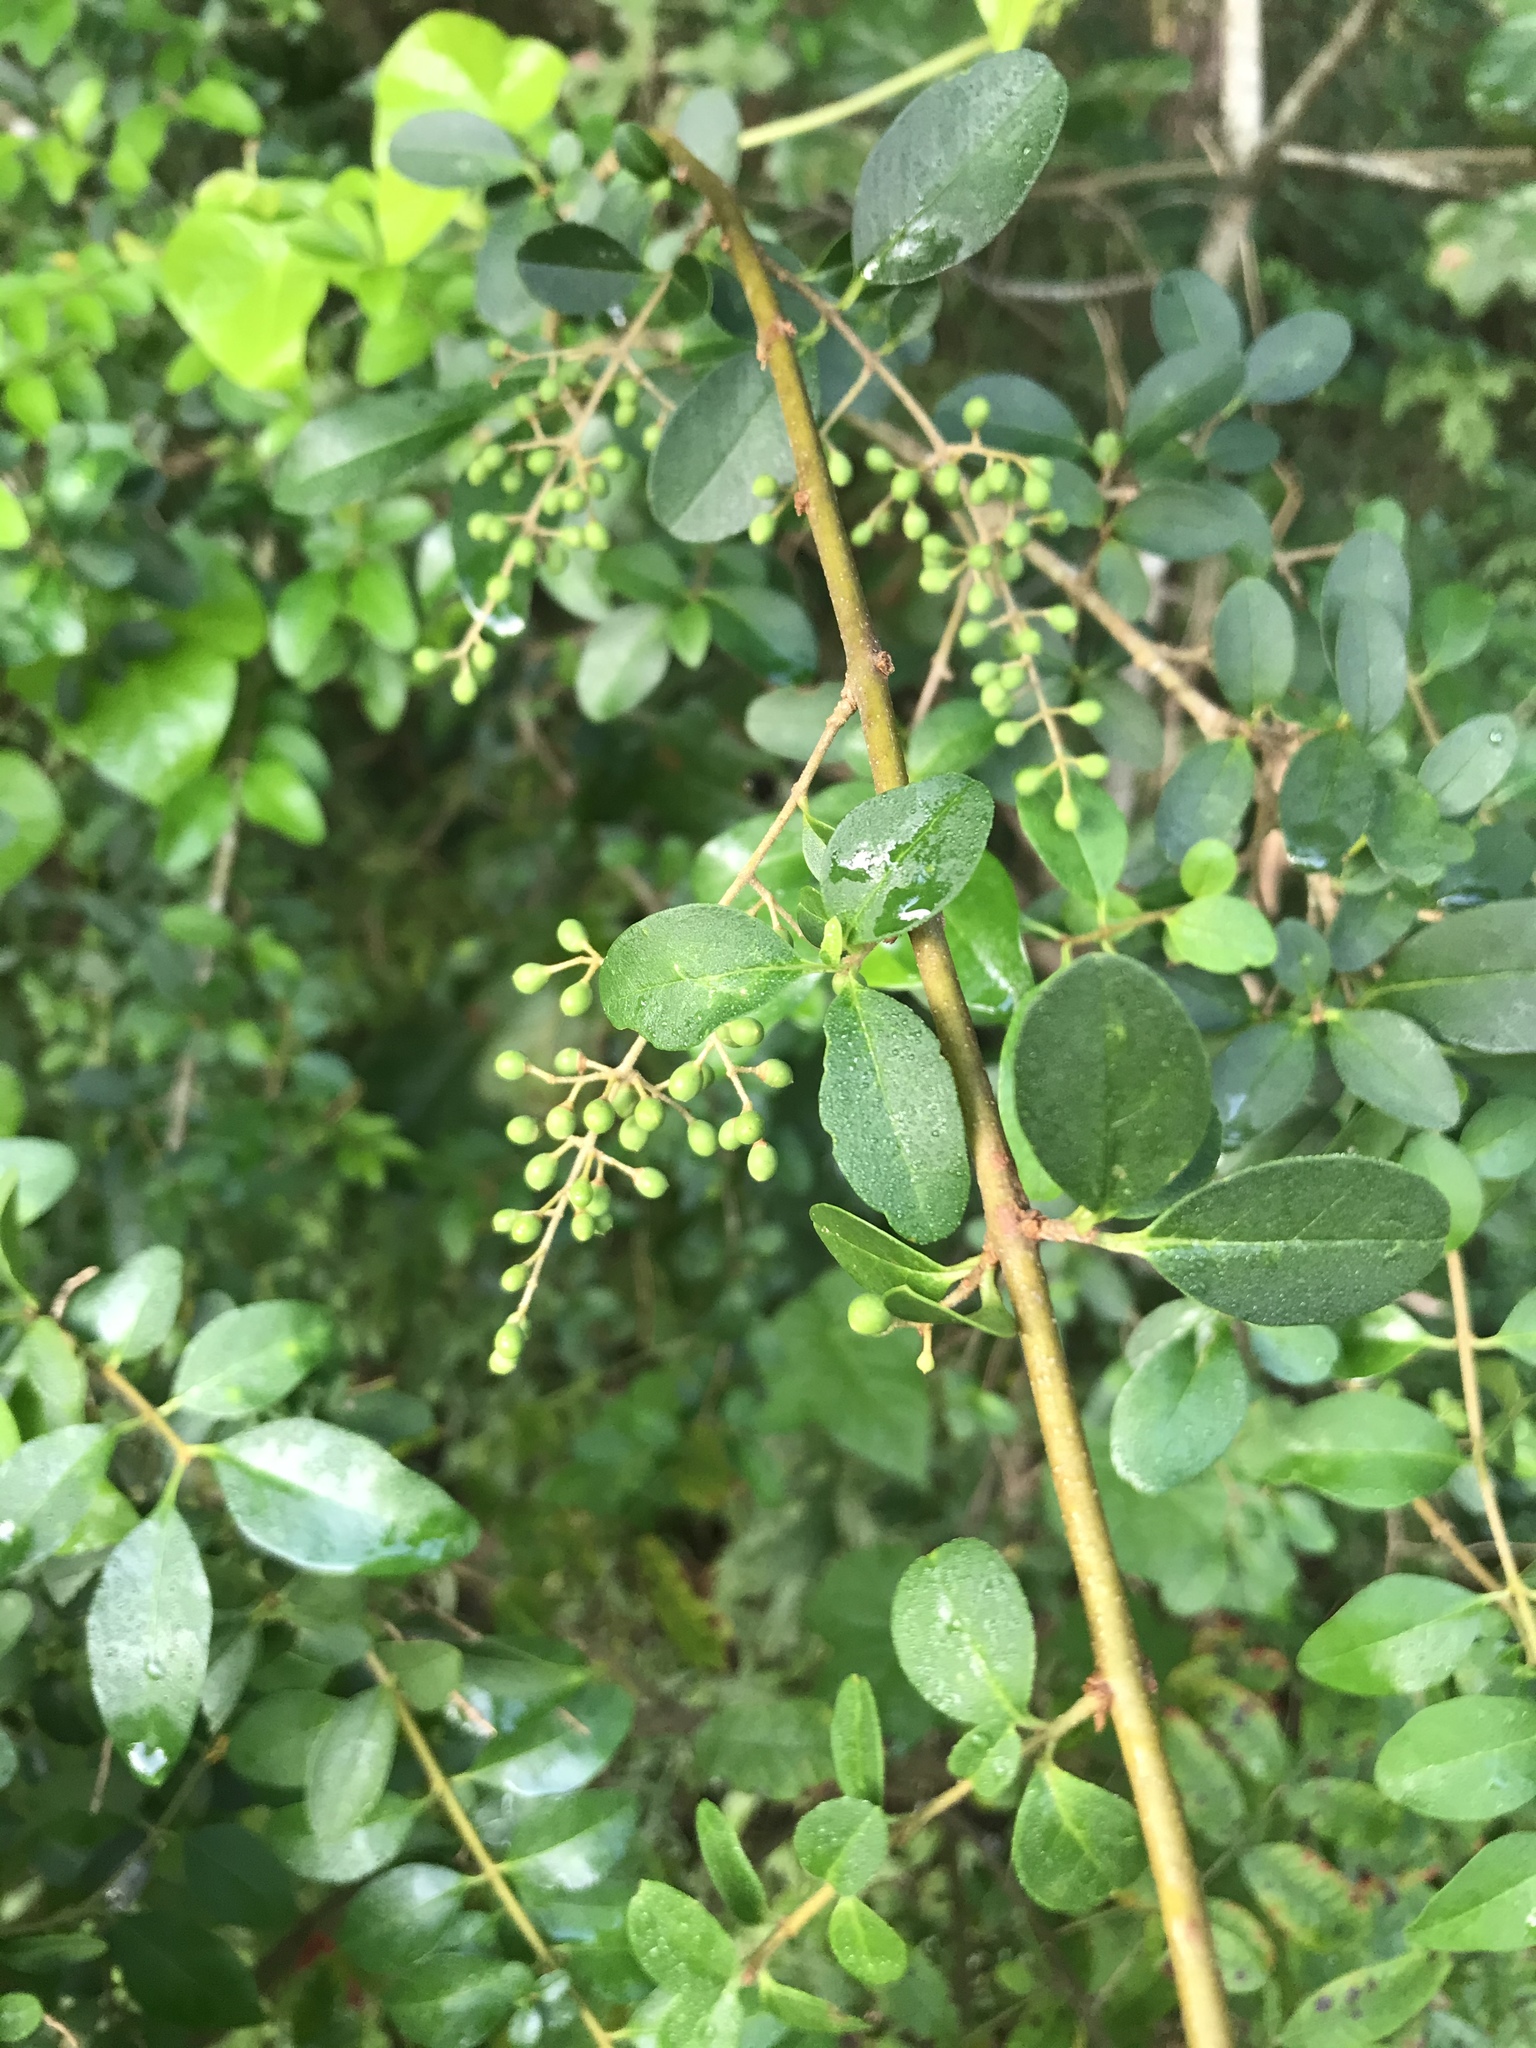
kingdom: Plantae
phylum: Tracheophyta
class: Magnoliopsida
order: Lamiales
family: Oleaceae
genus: Ligustrum
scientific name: Ligustrum sinense
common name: Chinese privet
